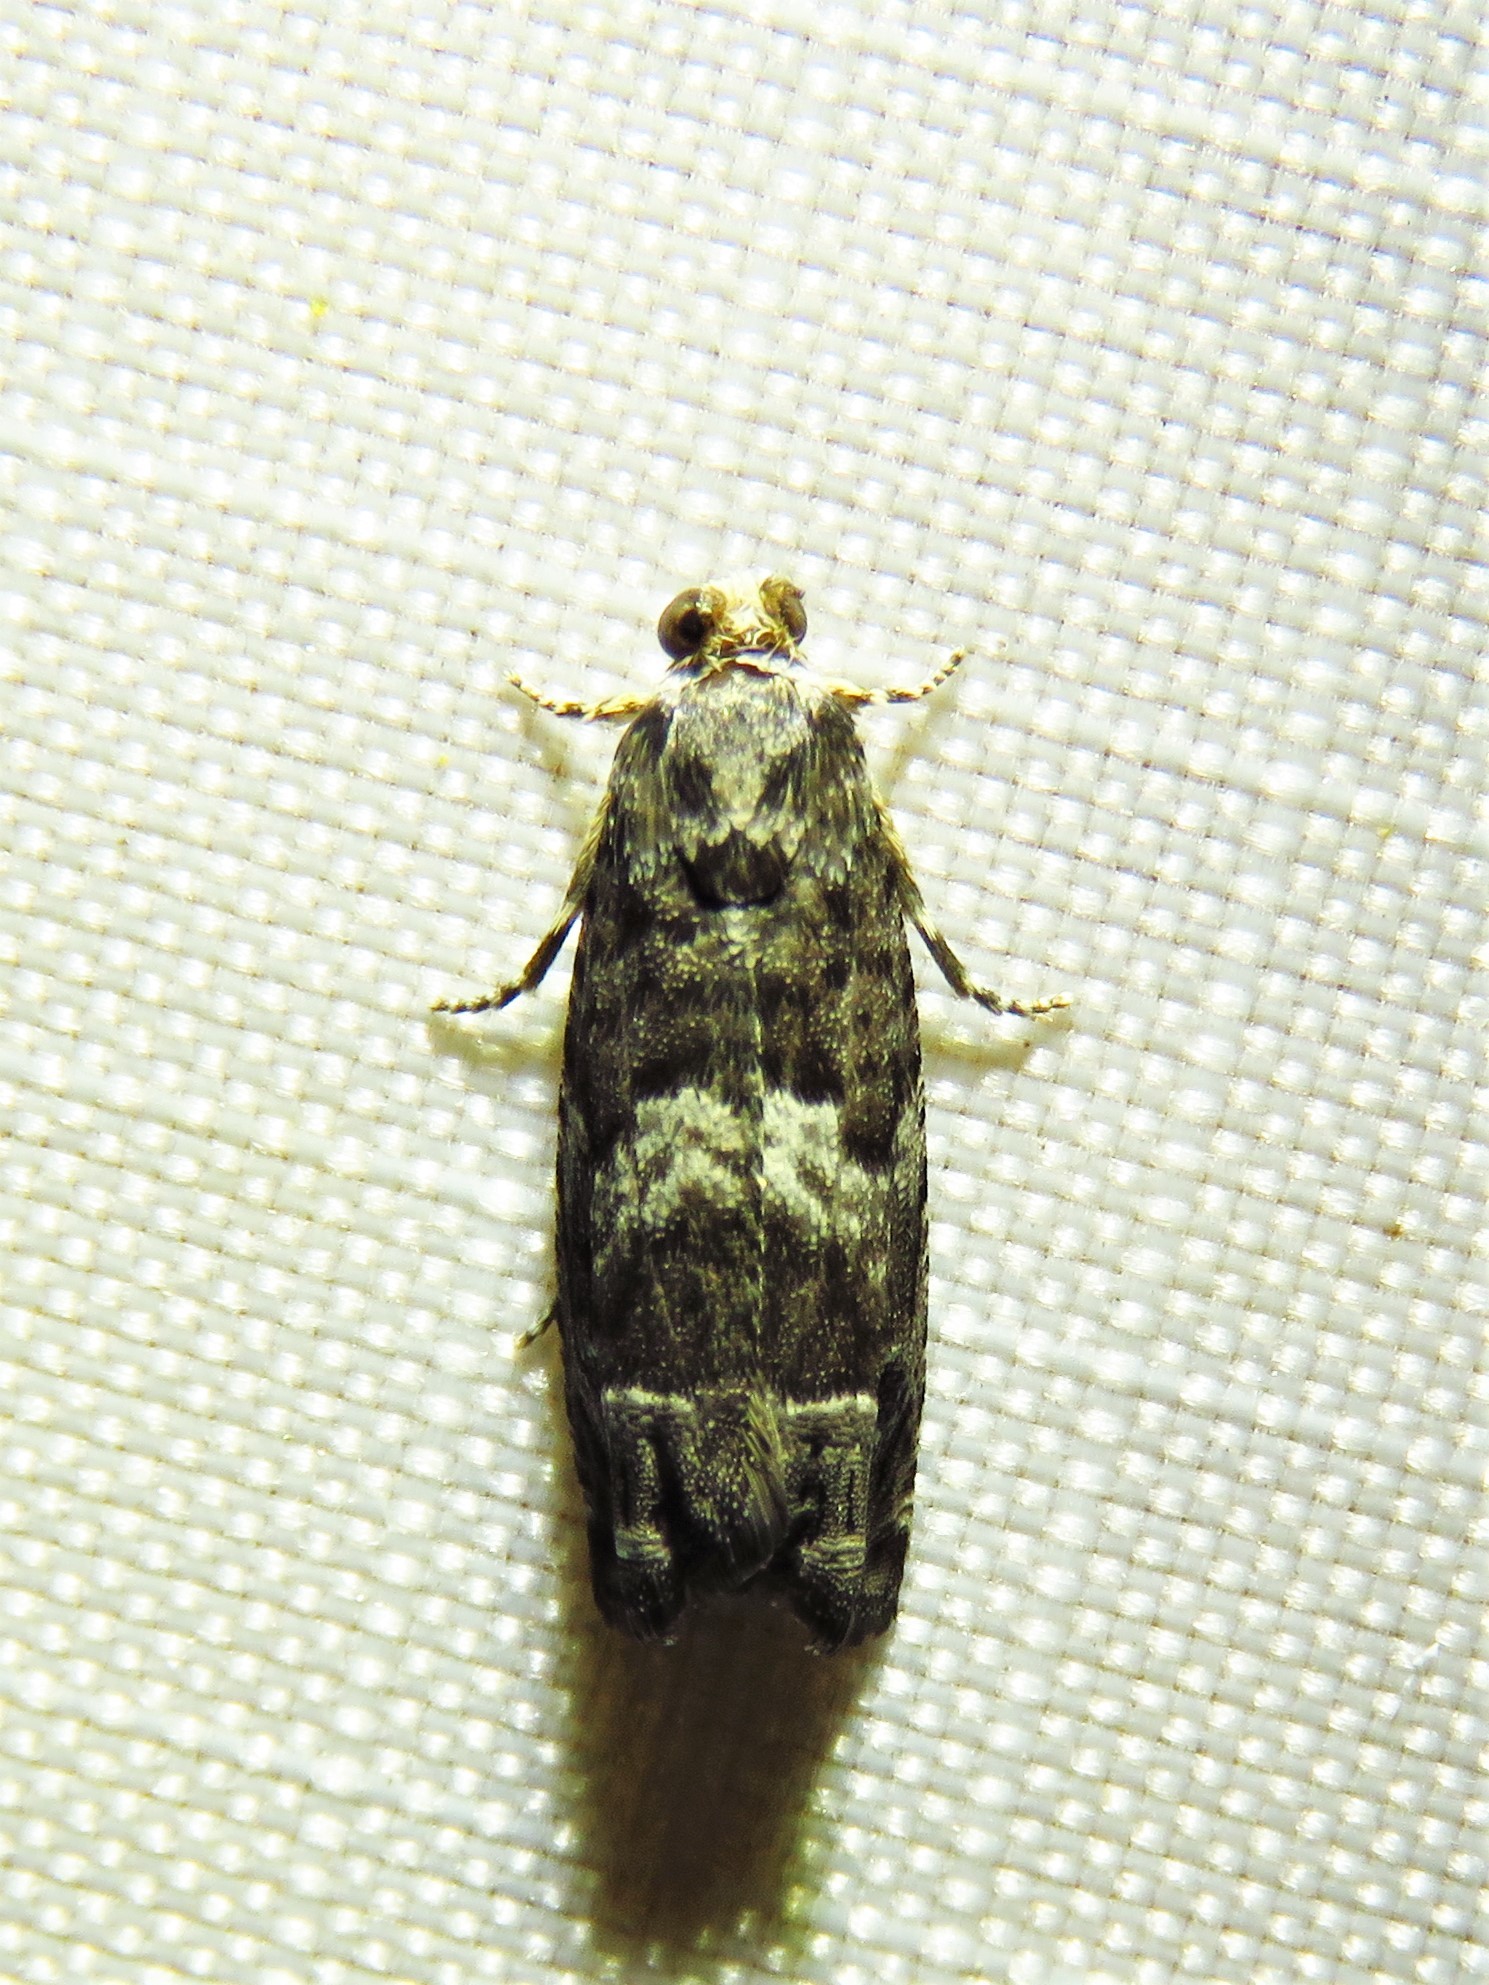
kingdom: Animalia
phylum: Arthropoda
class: Insecta
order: Lepidoptera
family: Tortricidae
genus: Cydia
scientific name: Cydia membrosa
